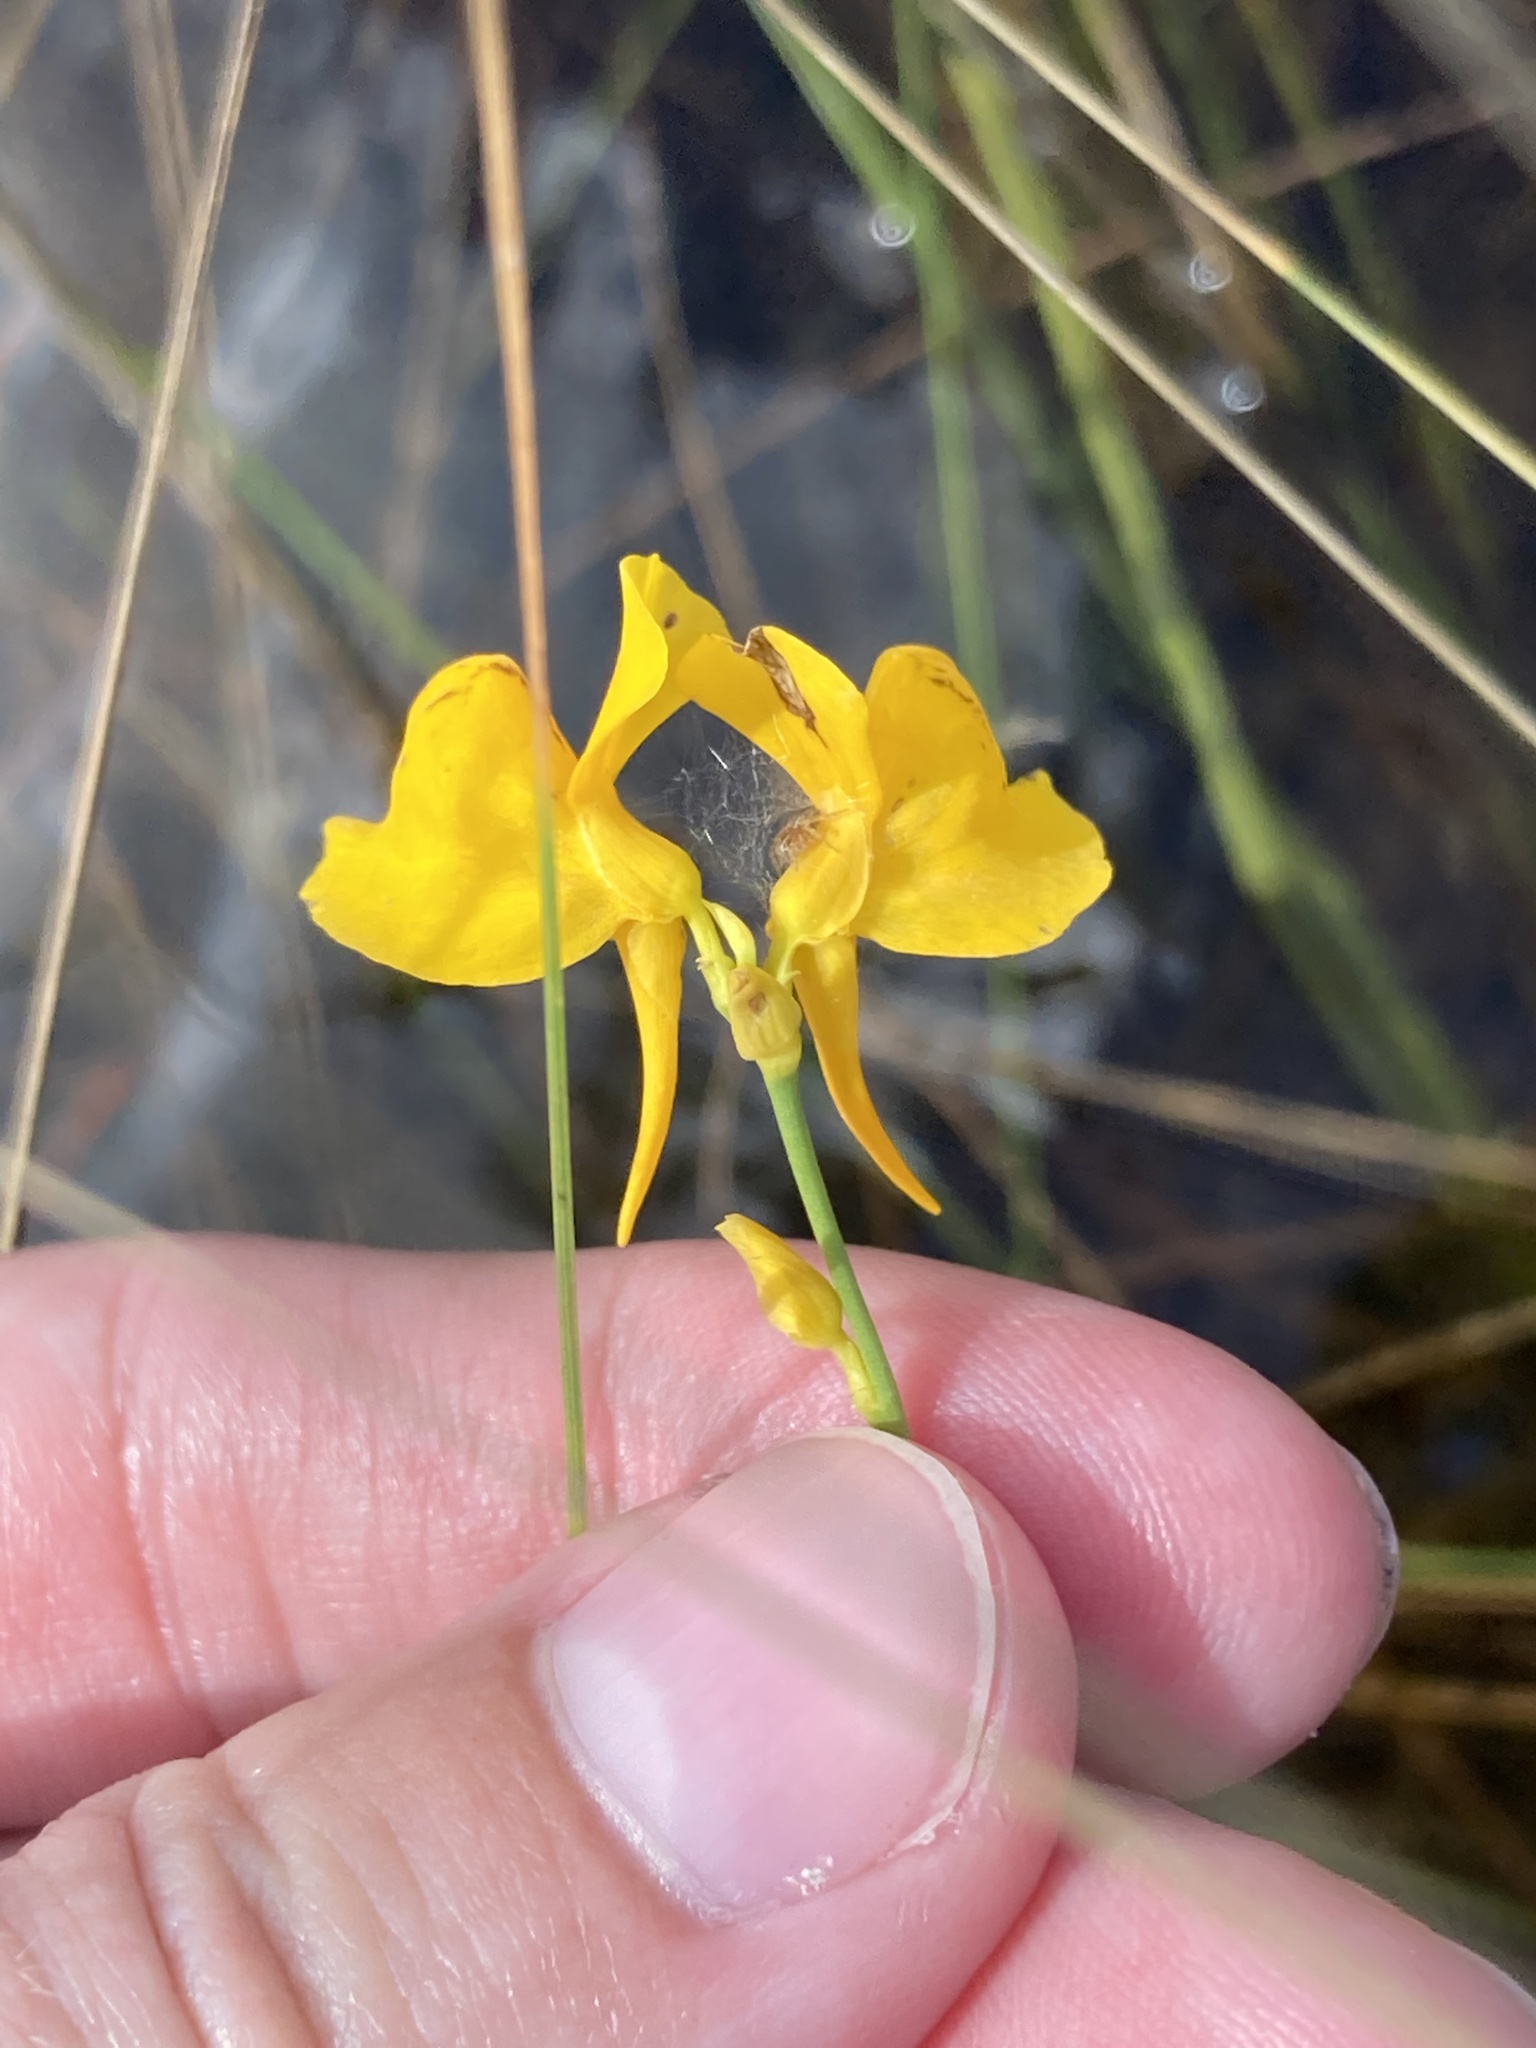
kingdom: Plantae
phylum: Tracheophyta
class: Magnoliopsida
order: Lamiales
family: Lentibulariaceae
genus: Utricularia
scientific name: Utricularia cornuta
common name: Horned bladderwort
